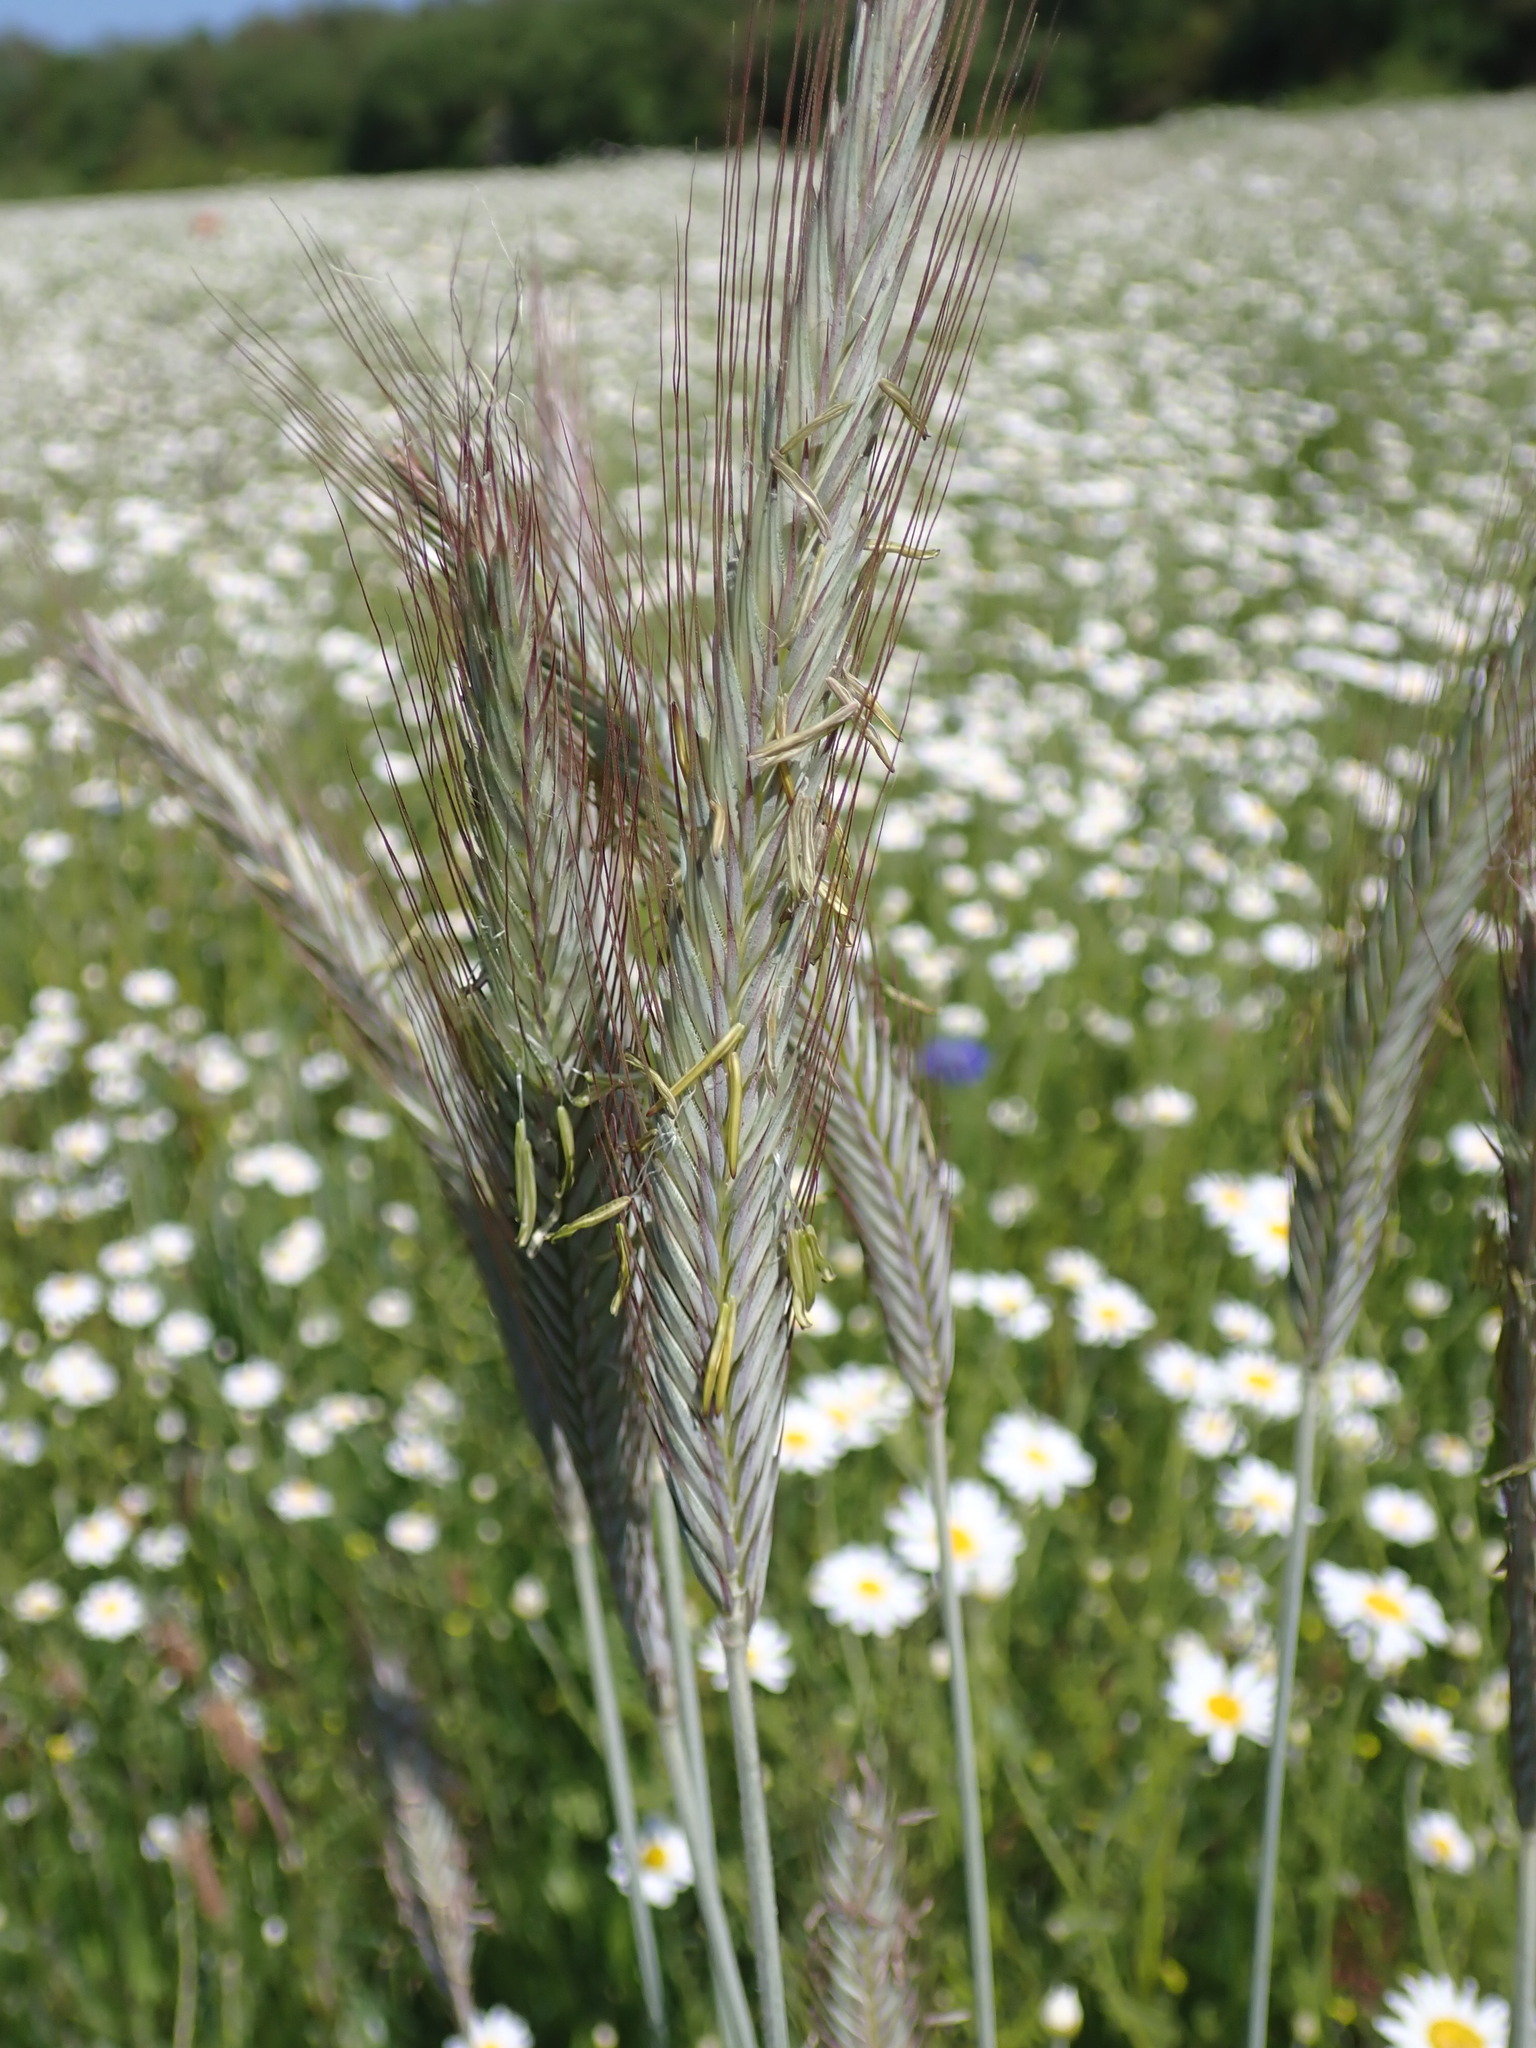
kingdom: Plantae
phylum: Tracheophyta
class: Liliopsida
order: Poales
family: Poaceae
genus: Secale
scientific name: Secale cereale
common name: Rye
